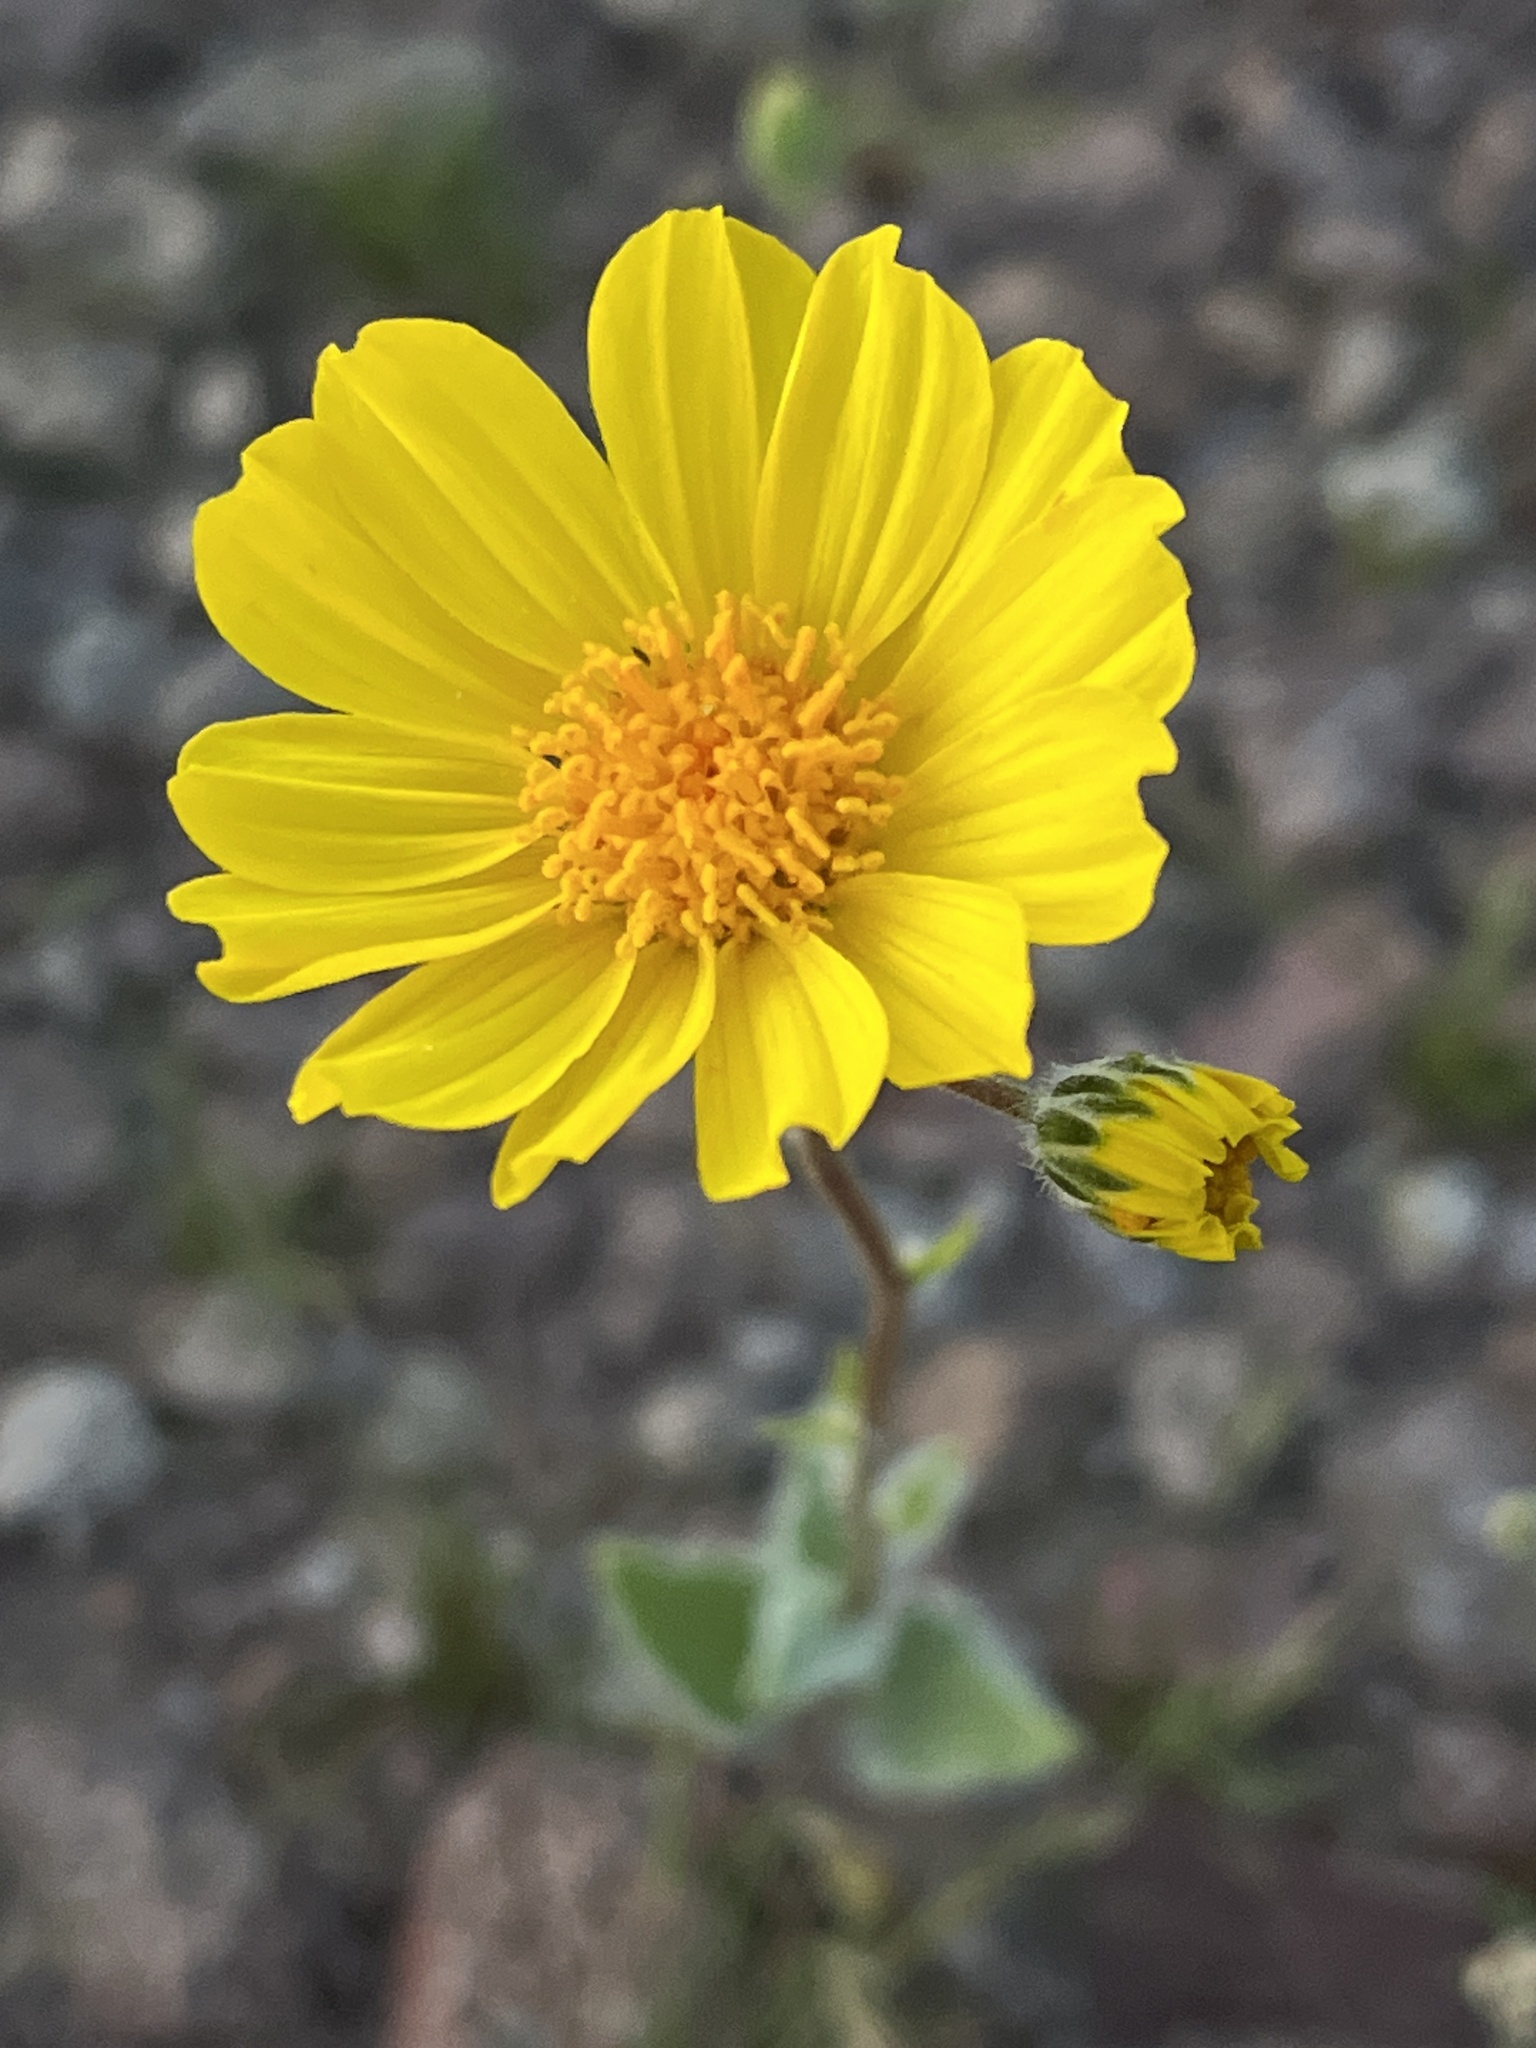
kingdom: Plantae
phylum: Tracheophyta
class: Magnoliopsida
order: Asterales
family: Asteraceae
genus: Geraea
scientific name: Geraea canescens
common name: Desert-gold
